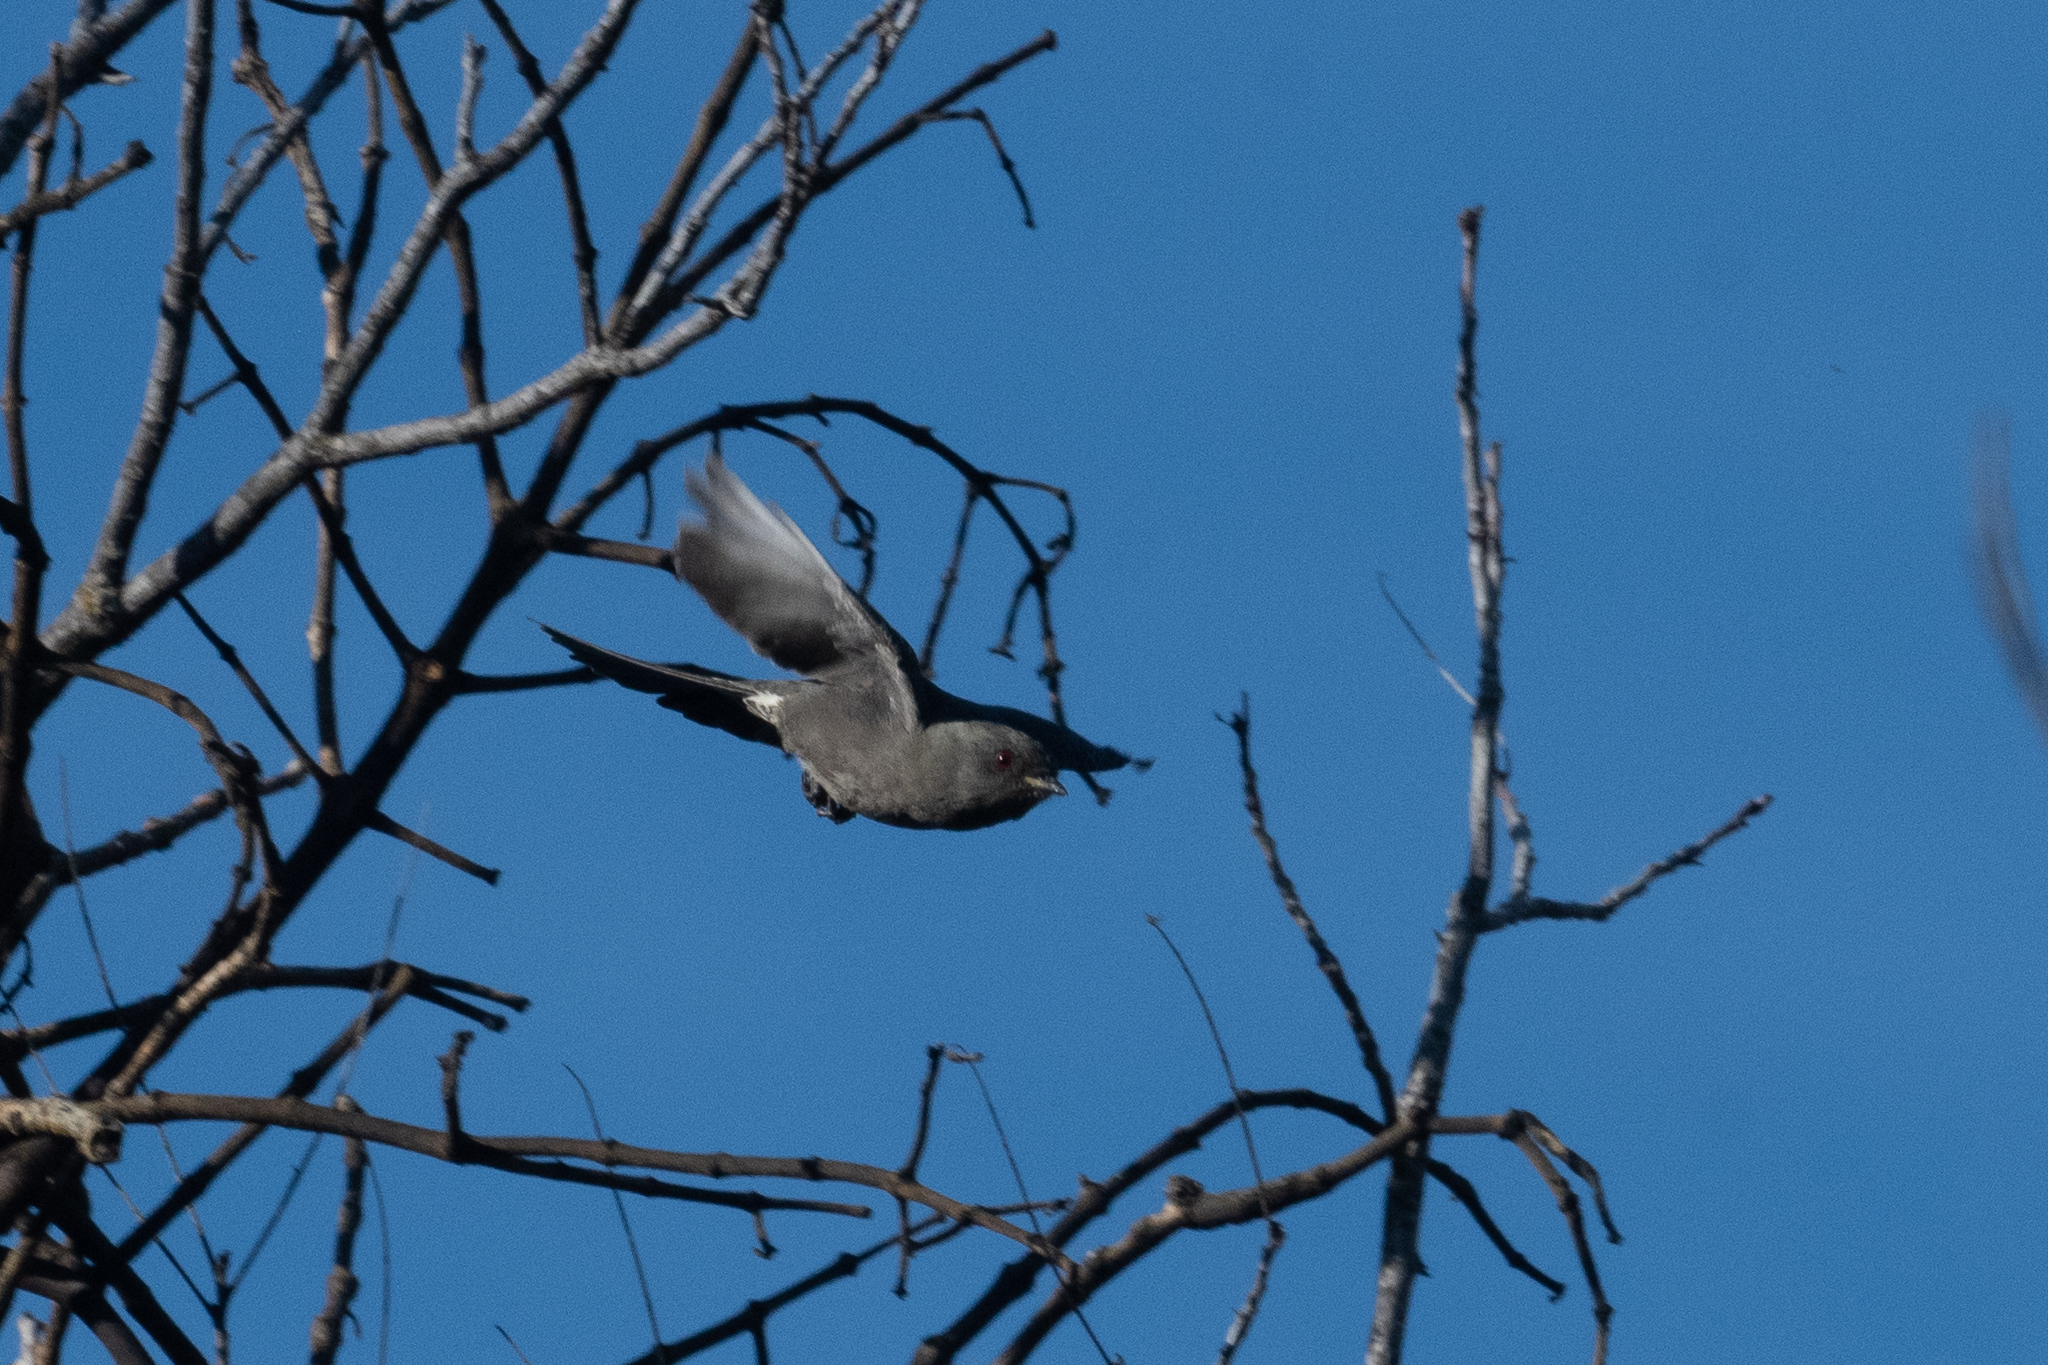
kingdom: Animalia
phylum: Chordata
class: Aves
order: Passeriformes
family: Ptilogonatidae
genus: Phainopepla
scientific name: Phainopepla nitens
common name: Phainopepla
